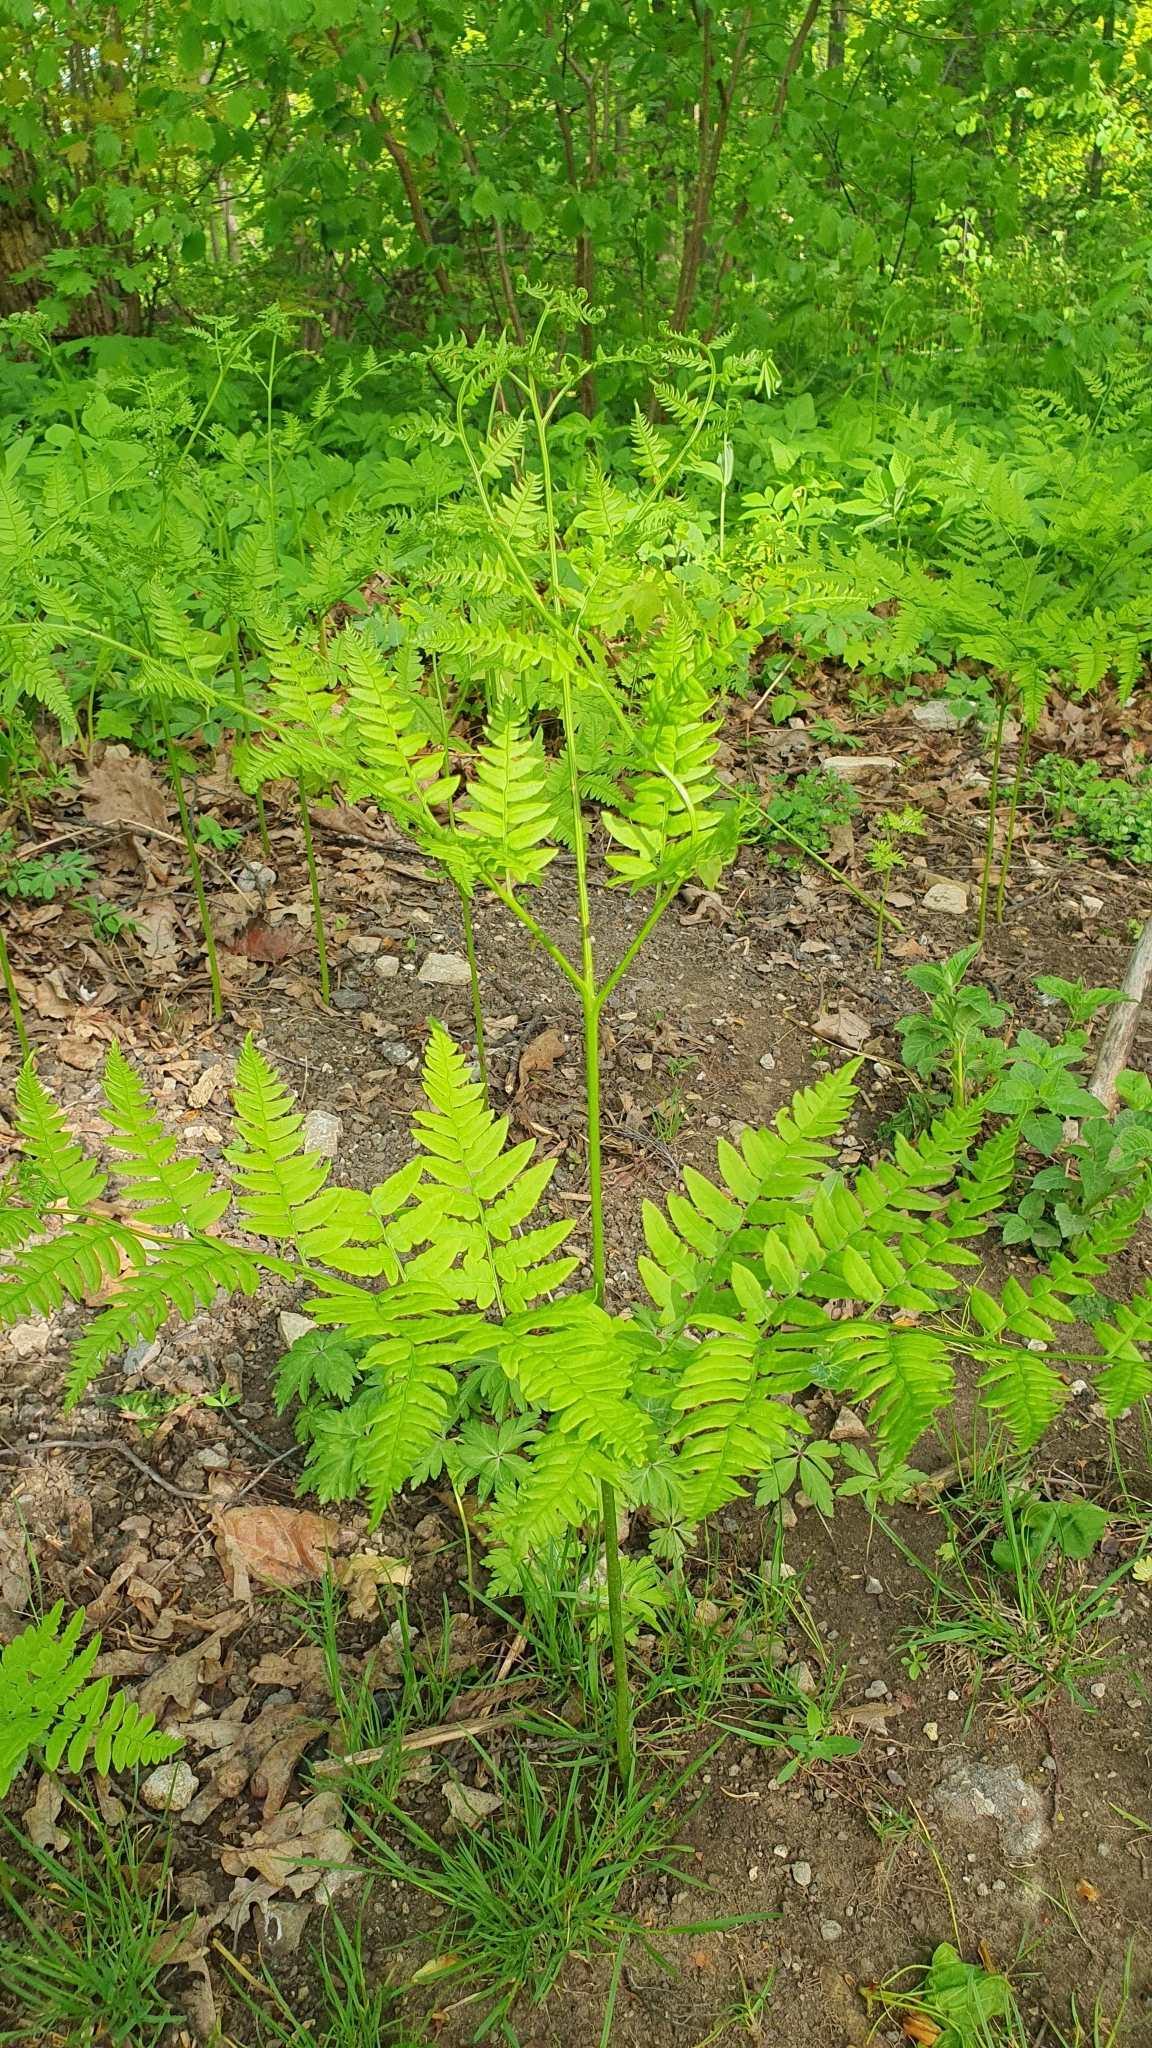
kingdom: Plantae
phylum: Tracheophyta
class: Polypodiopsida
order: Polypodiales
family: Dennstaedtiaceae
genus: Pteridium
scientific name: Pteridium aquilinum
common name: Bracken
